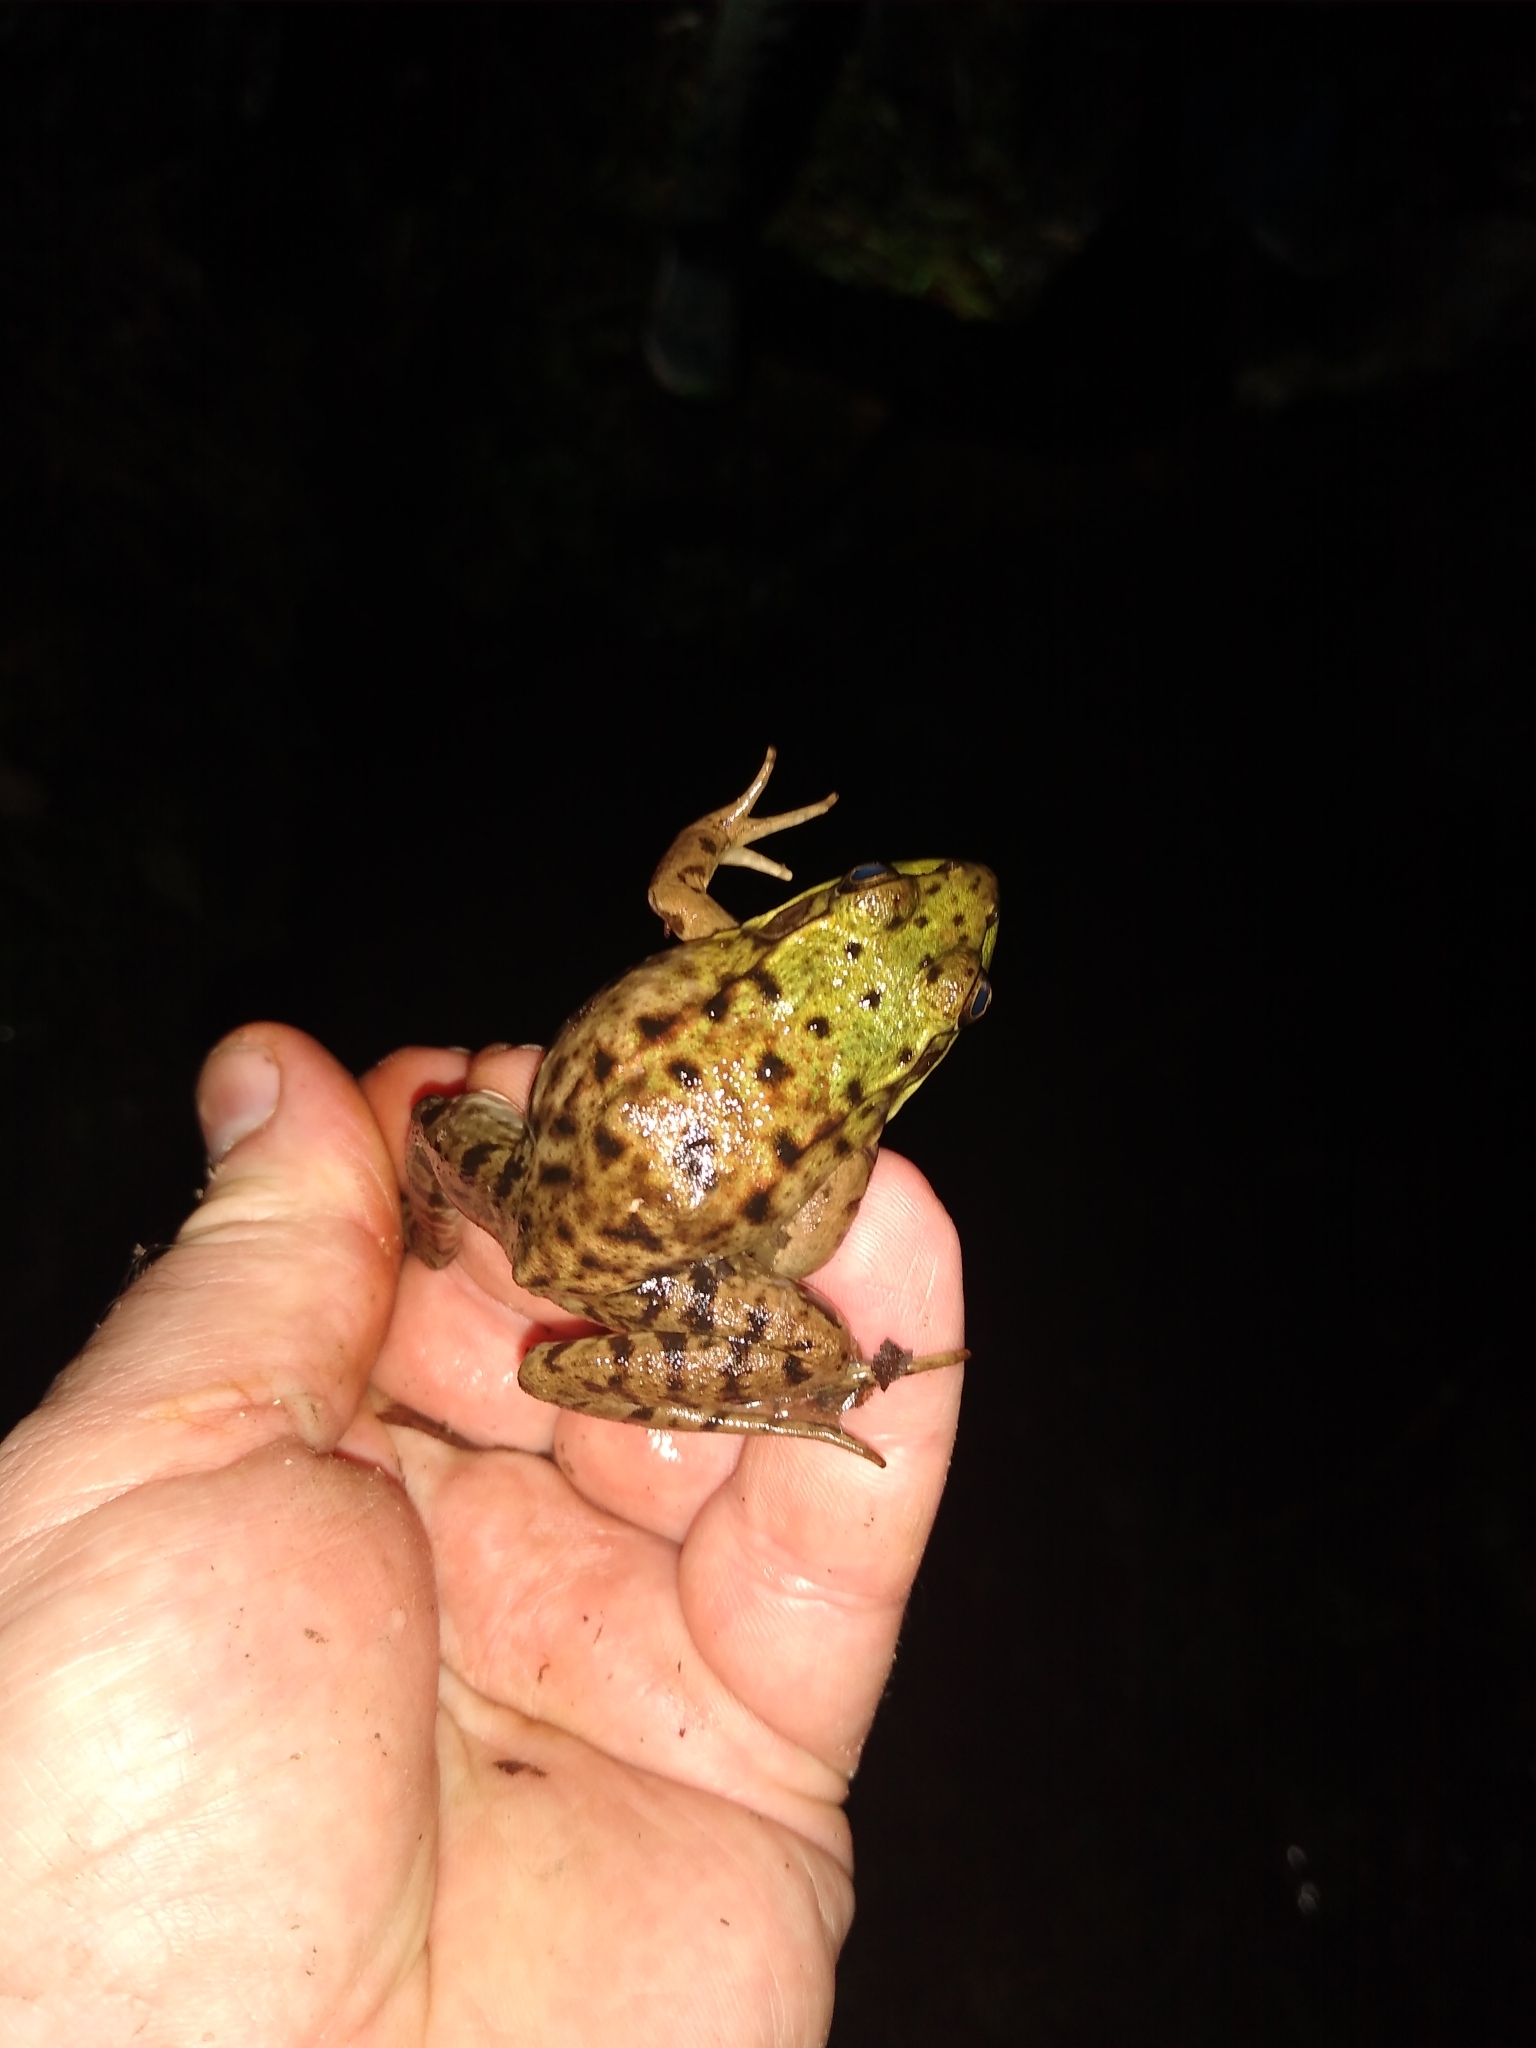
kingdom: Animalia
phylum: Chordata
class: Amphibia
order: Anura
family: Ranidae
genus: Lithobates
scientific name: Lithobates clamitans
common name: Green frog
